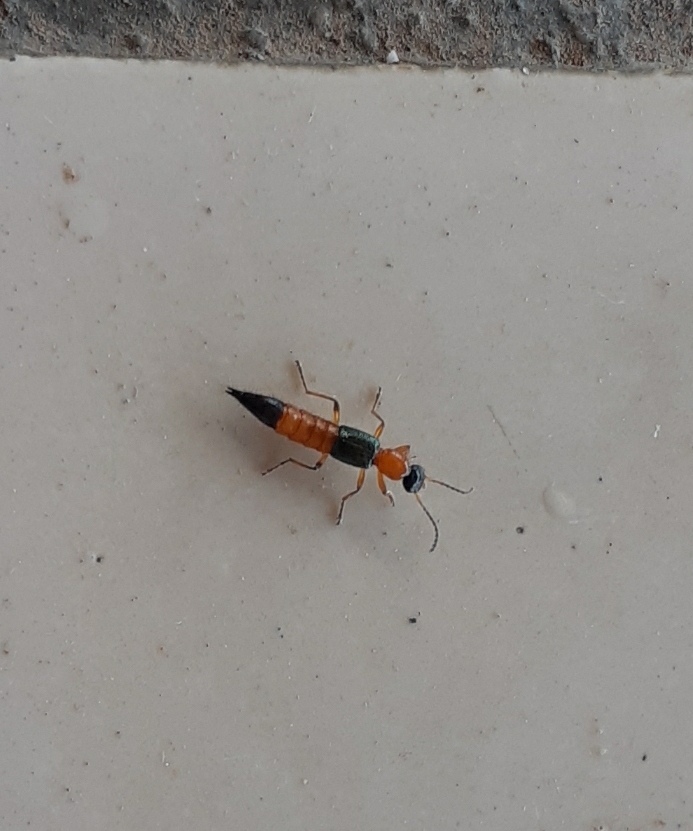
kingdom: Animalia
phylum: Arthropoda
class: Insecta
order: Coleoptera
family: Staphylinidae
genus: Paederus
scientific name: Paederus fuscipes
